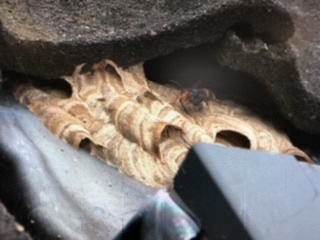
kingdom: Animalia
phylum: Arthropoda
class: Insecta
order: Hymenoptera
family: Vespidae
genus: Vespa
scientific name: Vespa velutina
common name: Asian hornet
